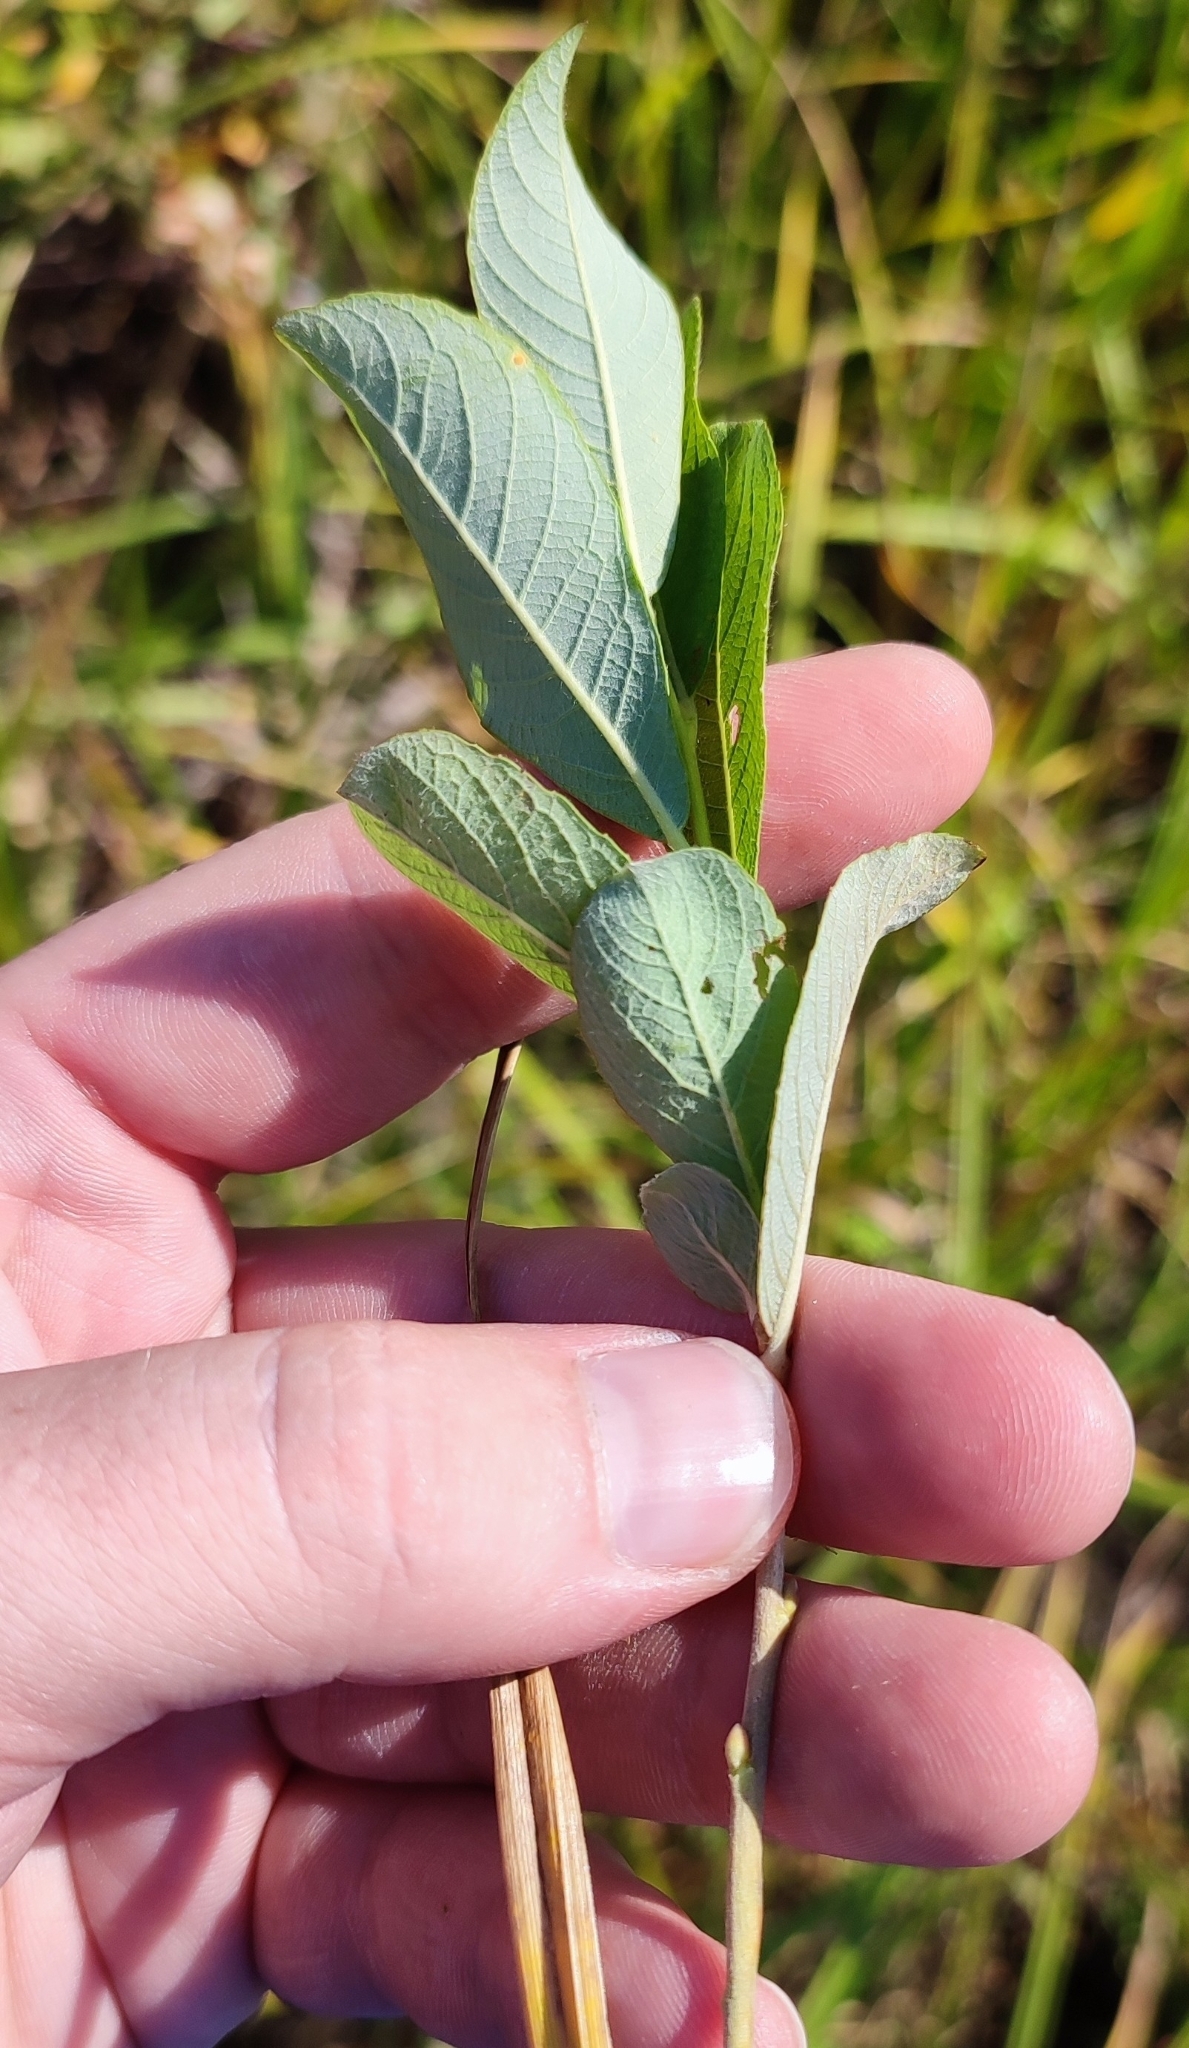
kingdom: Plantae
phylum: Tracheophyta
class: Magnoliopsida
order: Malpighiales
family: Salicaceae
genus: Salix
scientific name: Salix cinerea
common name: Common sallow
